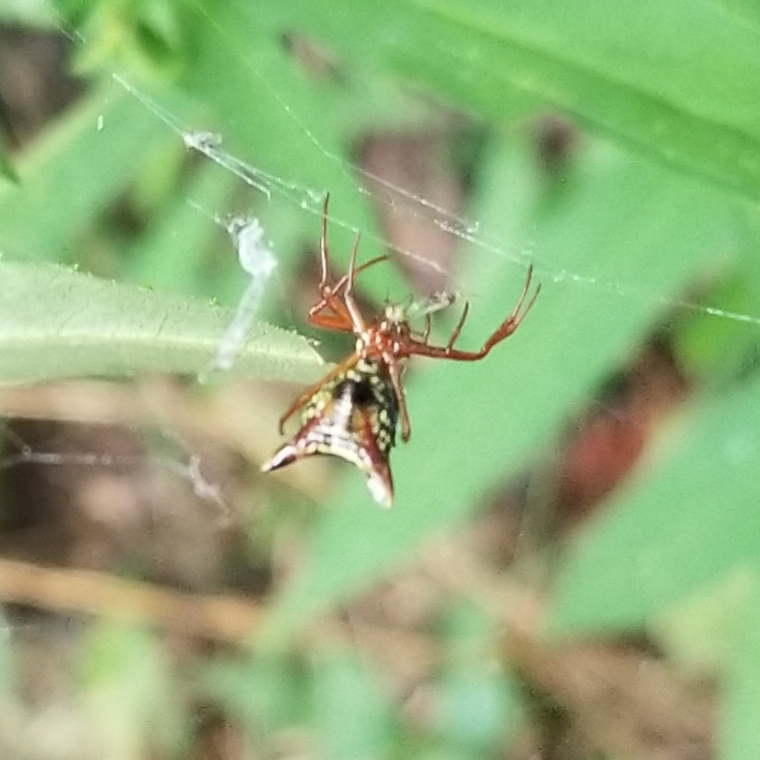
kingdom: Animalia
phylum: Arthropoda
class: Arachnida
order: Araneae
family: Araneidae
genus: Micrathena
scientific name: Micrathena sagittata
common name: Orb weavers
